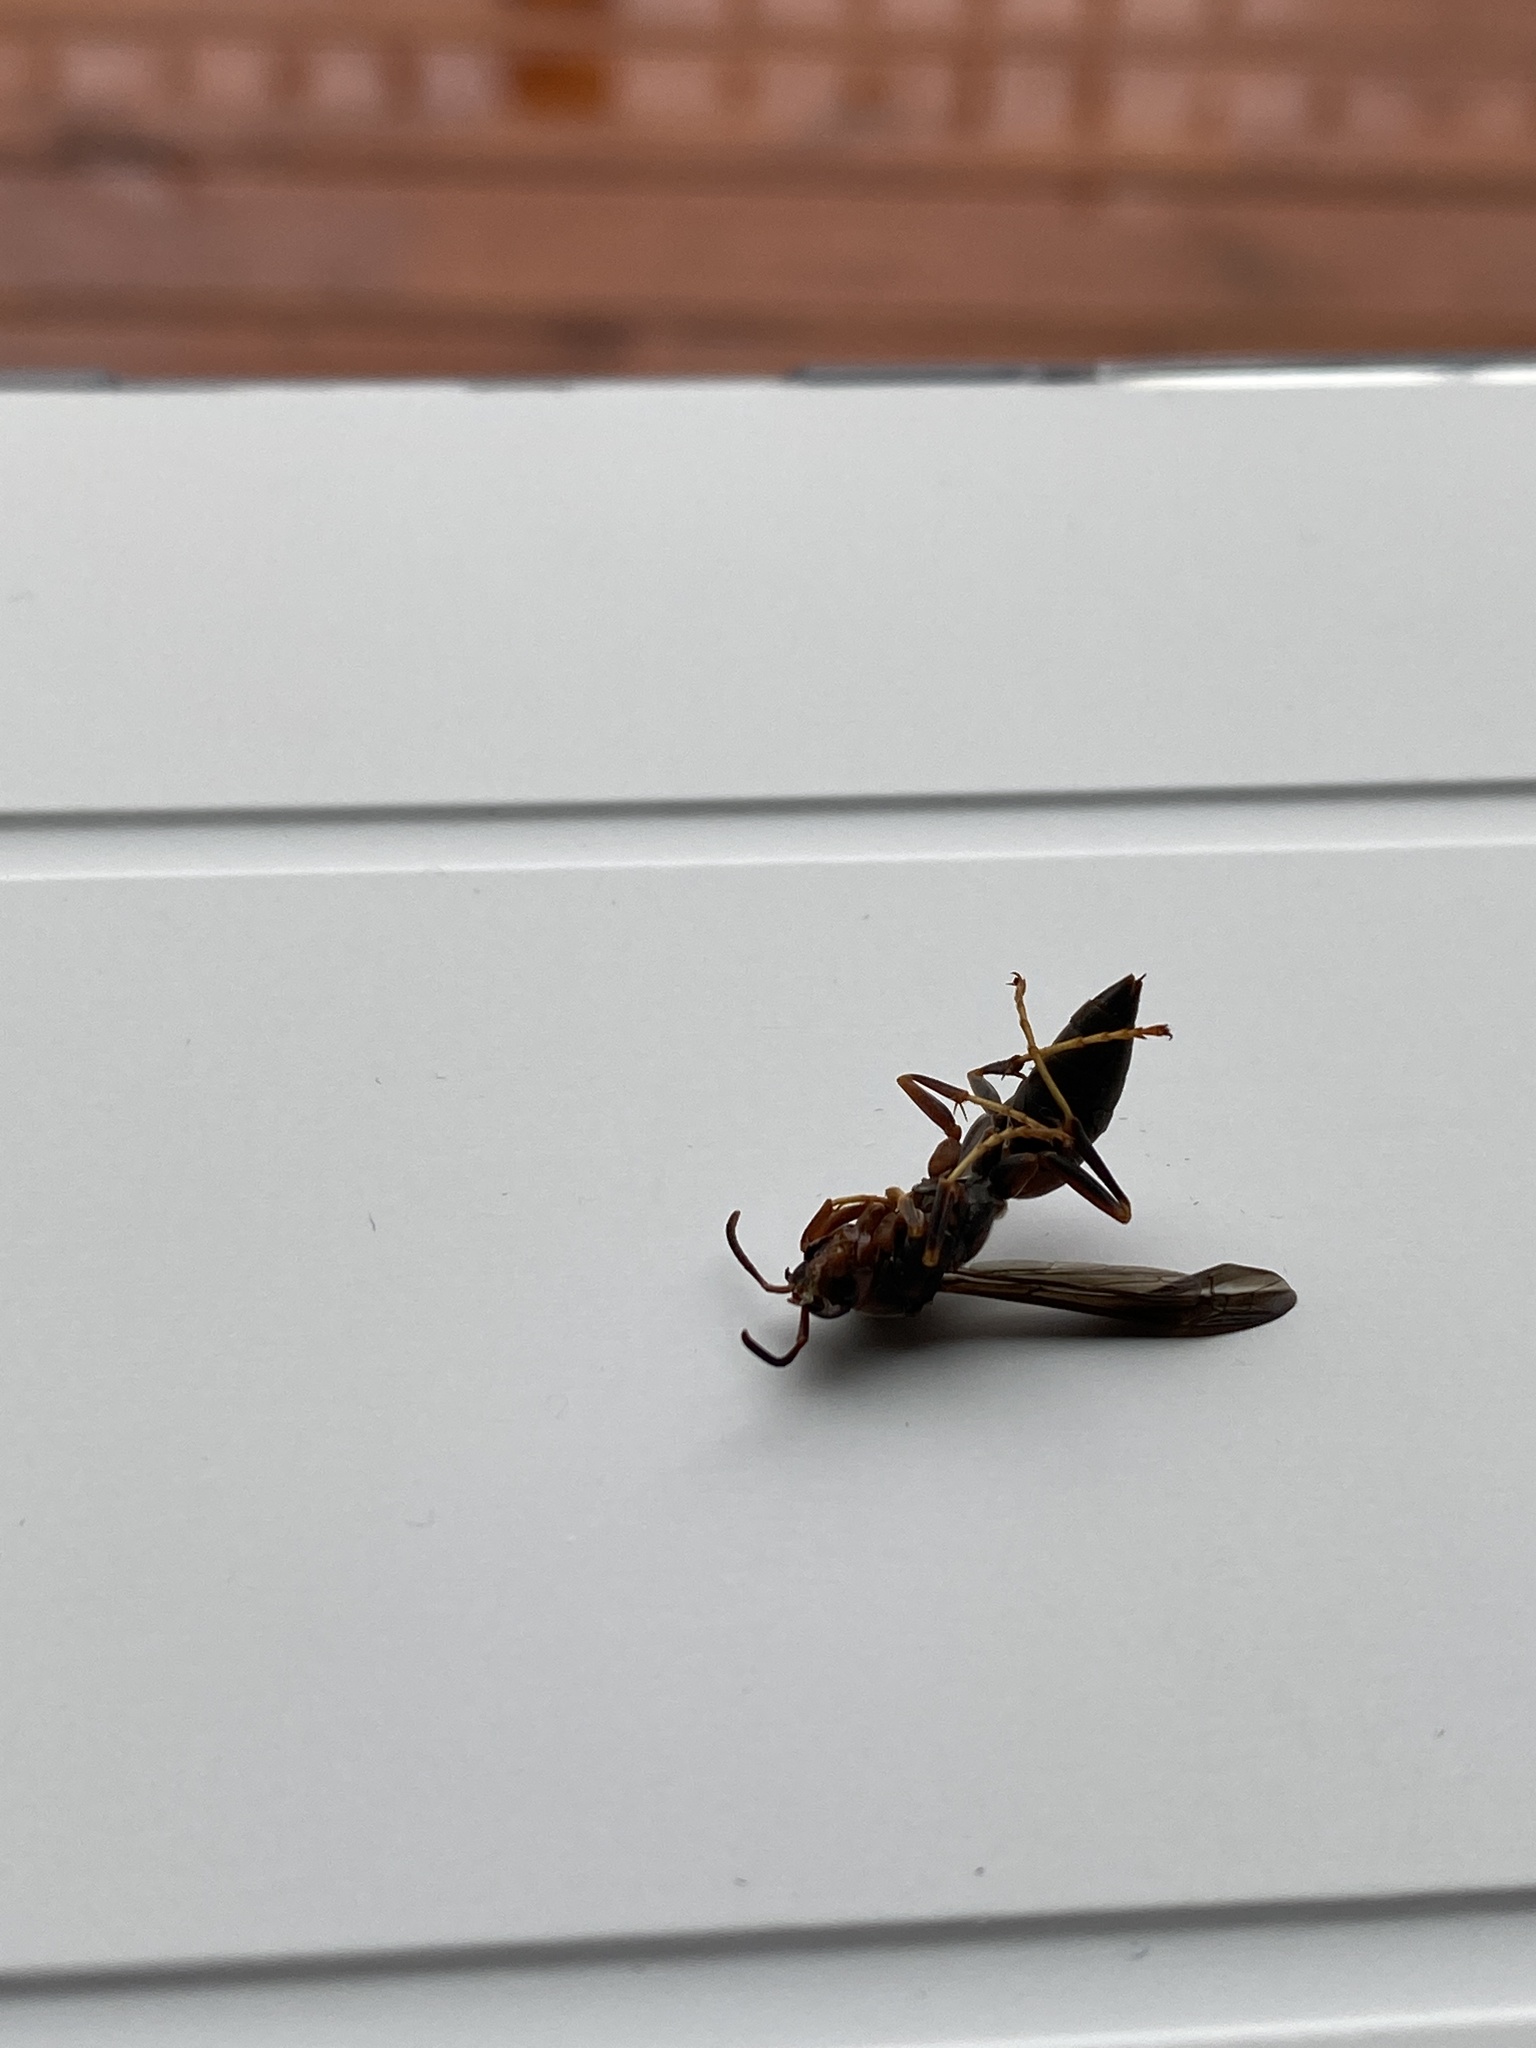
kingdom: Animalia
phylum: Arthropoda
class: Insecta
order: Hymenoptera
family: Vespidae
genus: Fuscopolistes
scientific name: Fuscopolistes
